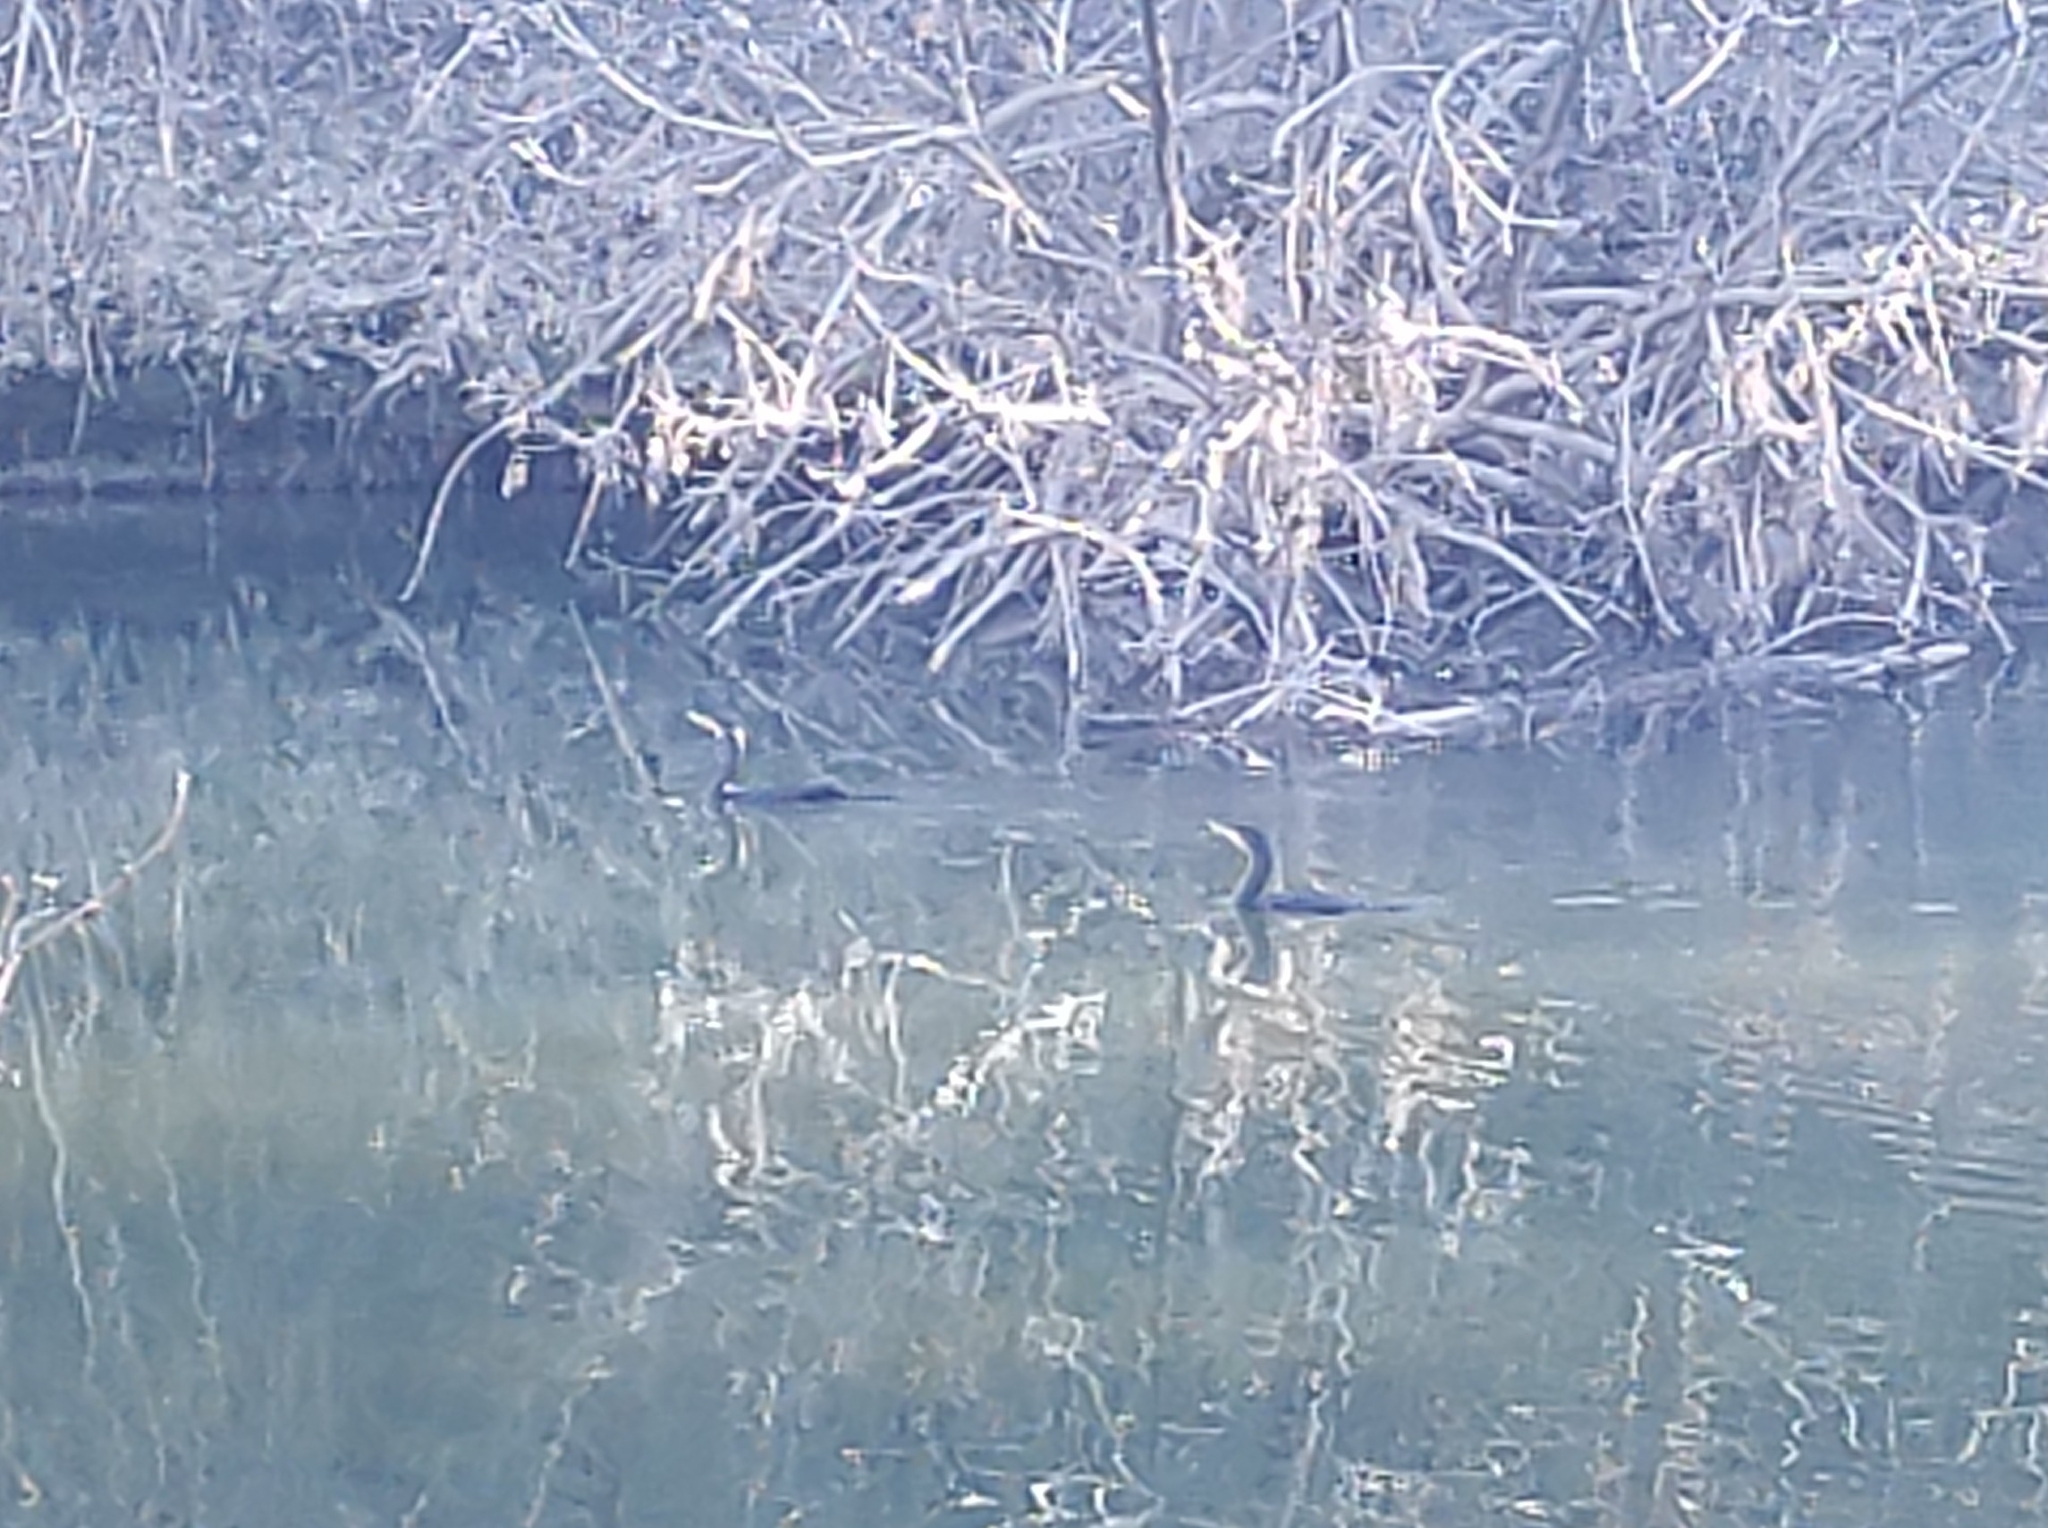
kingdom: Animalia
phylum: Chordata
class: Aves
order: Suliformes
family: Phalacrocoracidae
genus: Phalacrocorax
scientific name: Phalacrocorax auritus
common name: Double-crested cormorant
